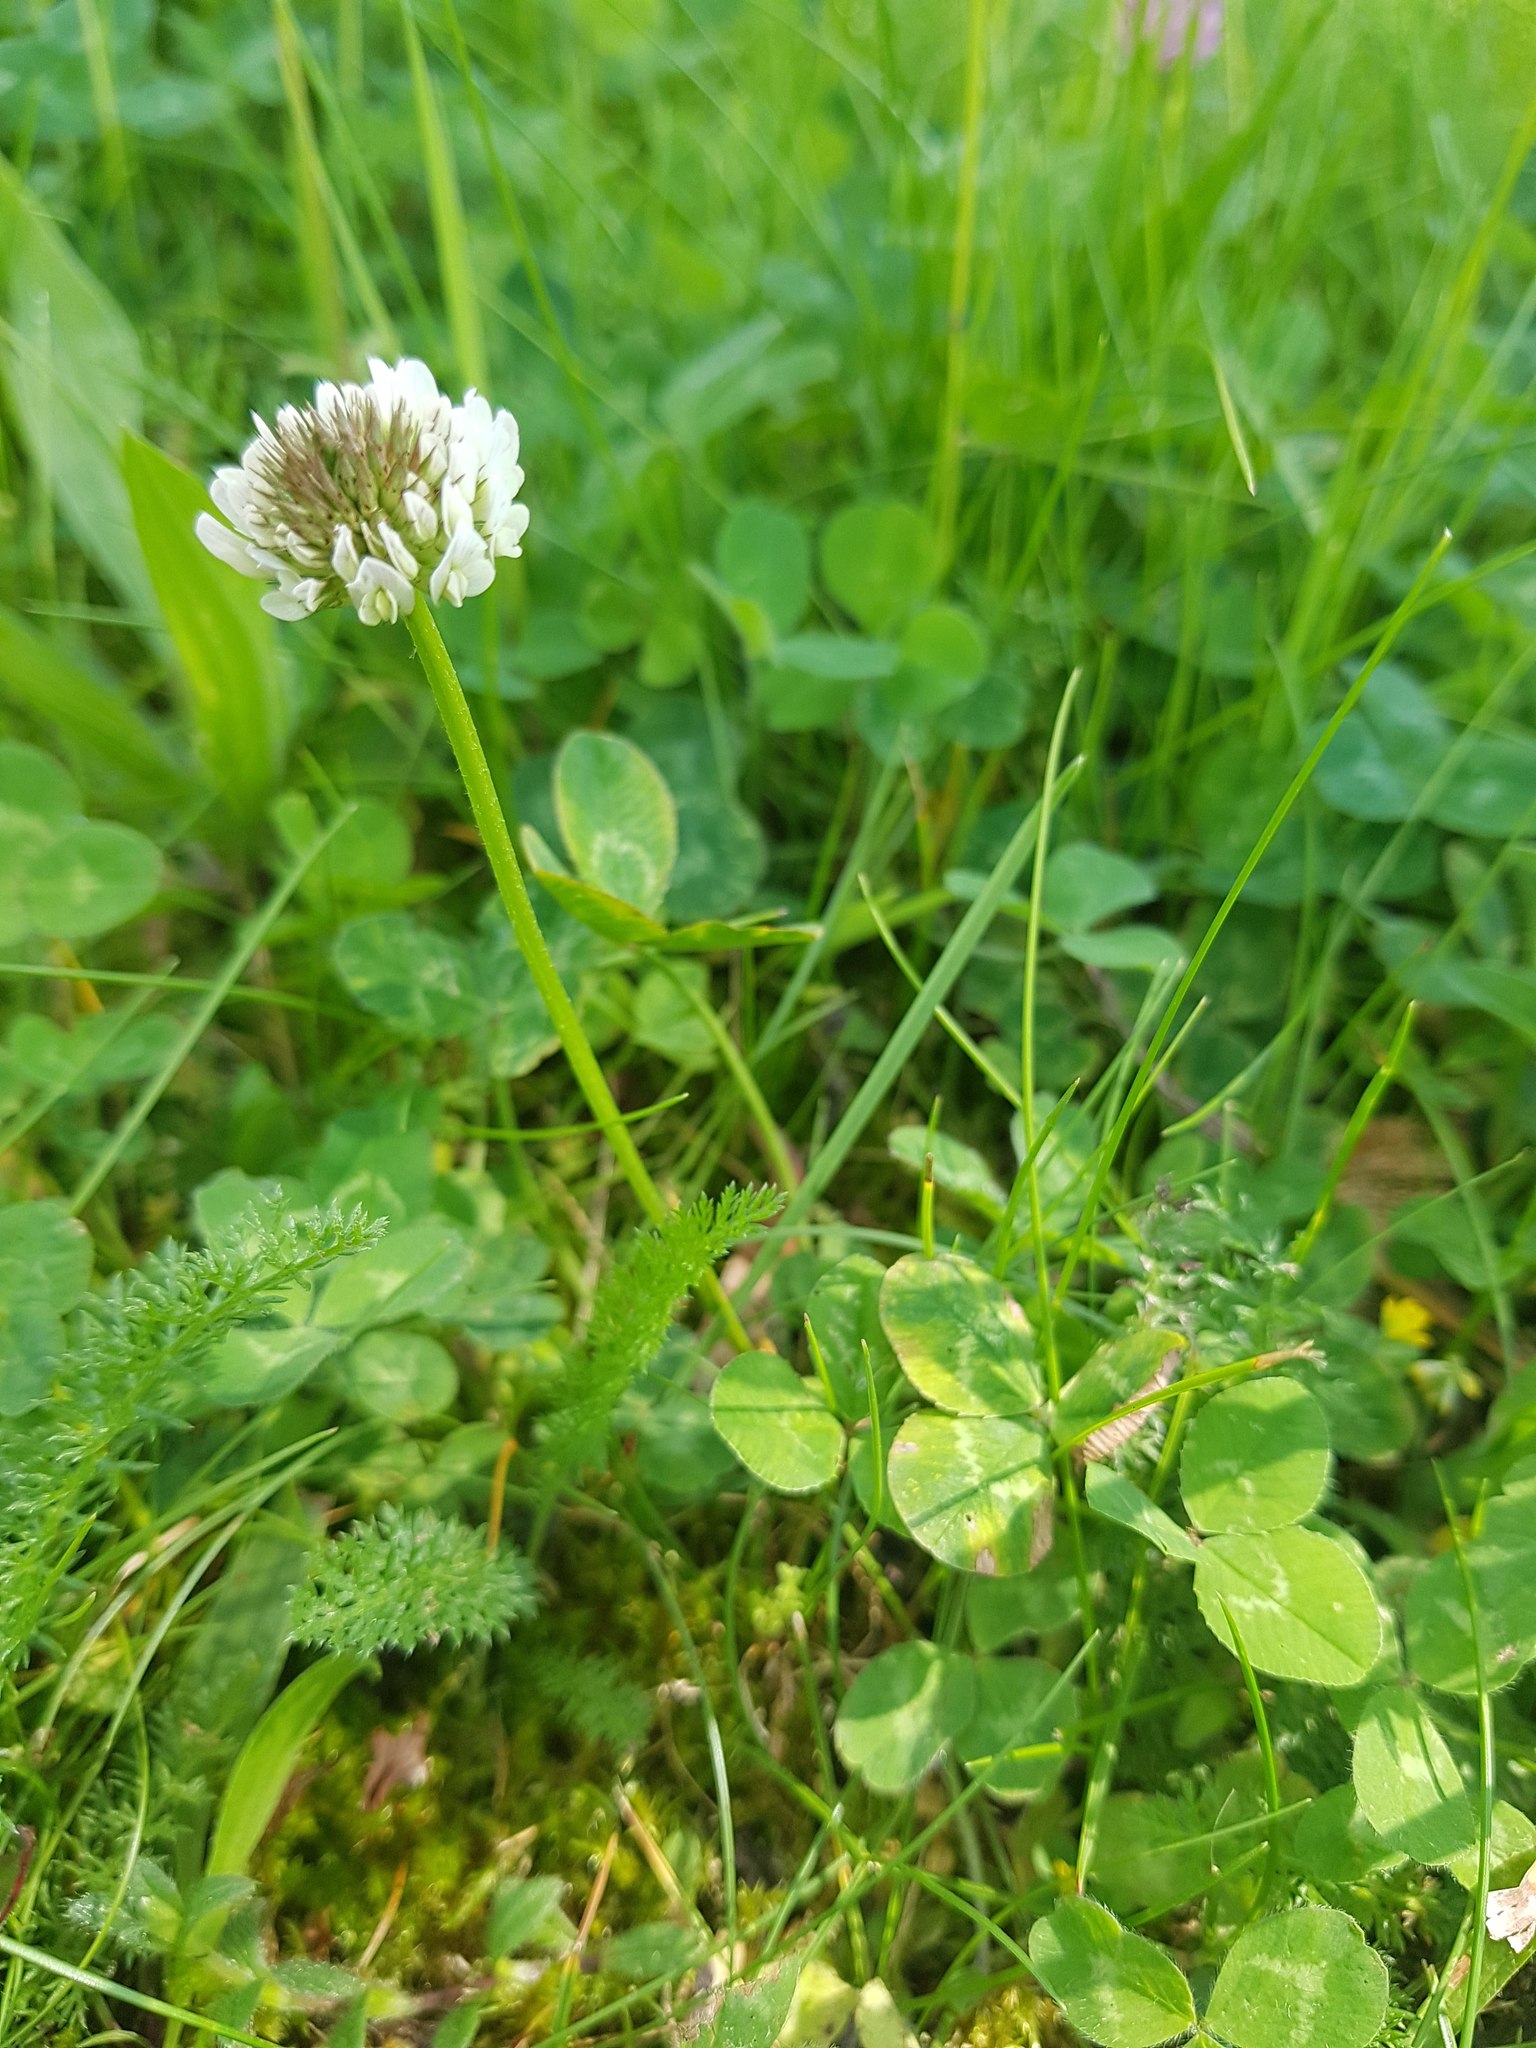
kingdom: Plantae
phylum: Tracheophyta
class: Magnoliopsida
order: Fabales
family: Fabaceae
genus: Trifolium
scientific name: Trifolium repens
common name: White clover
